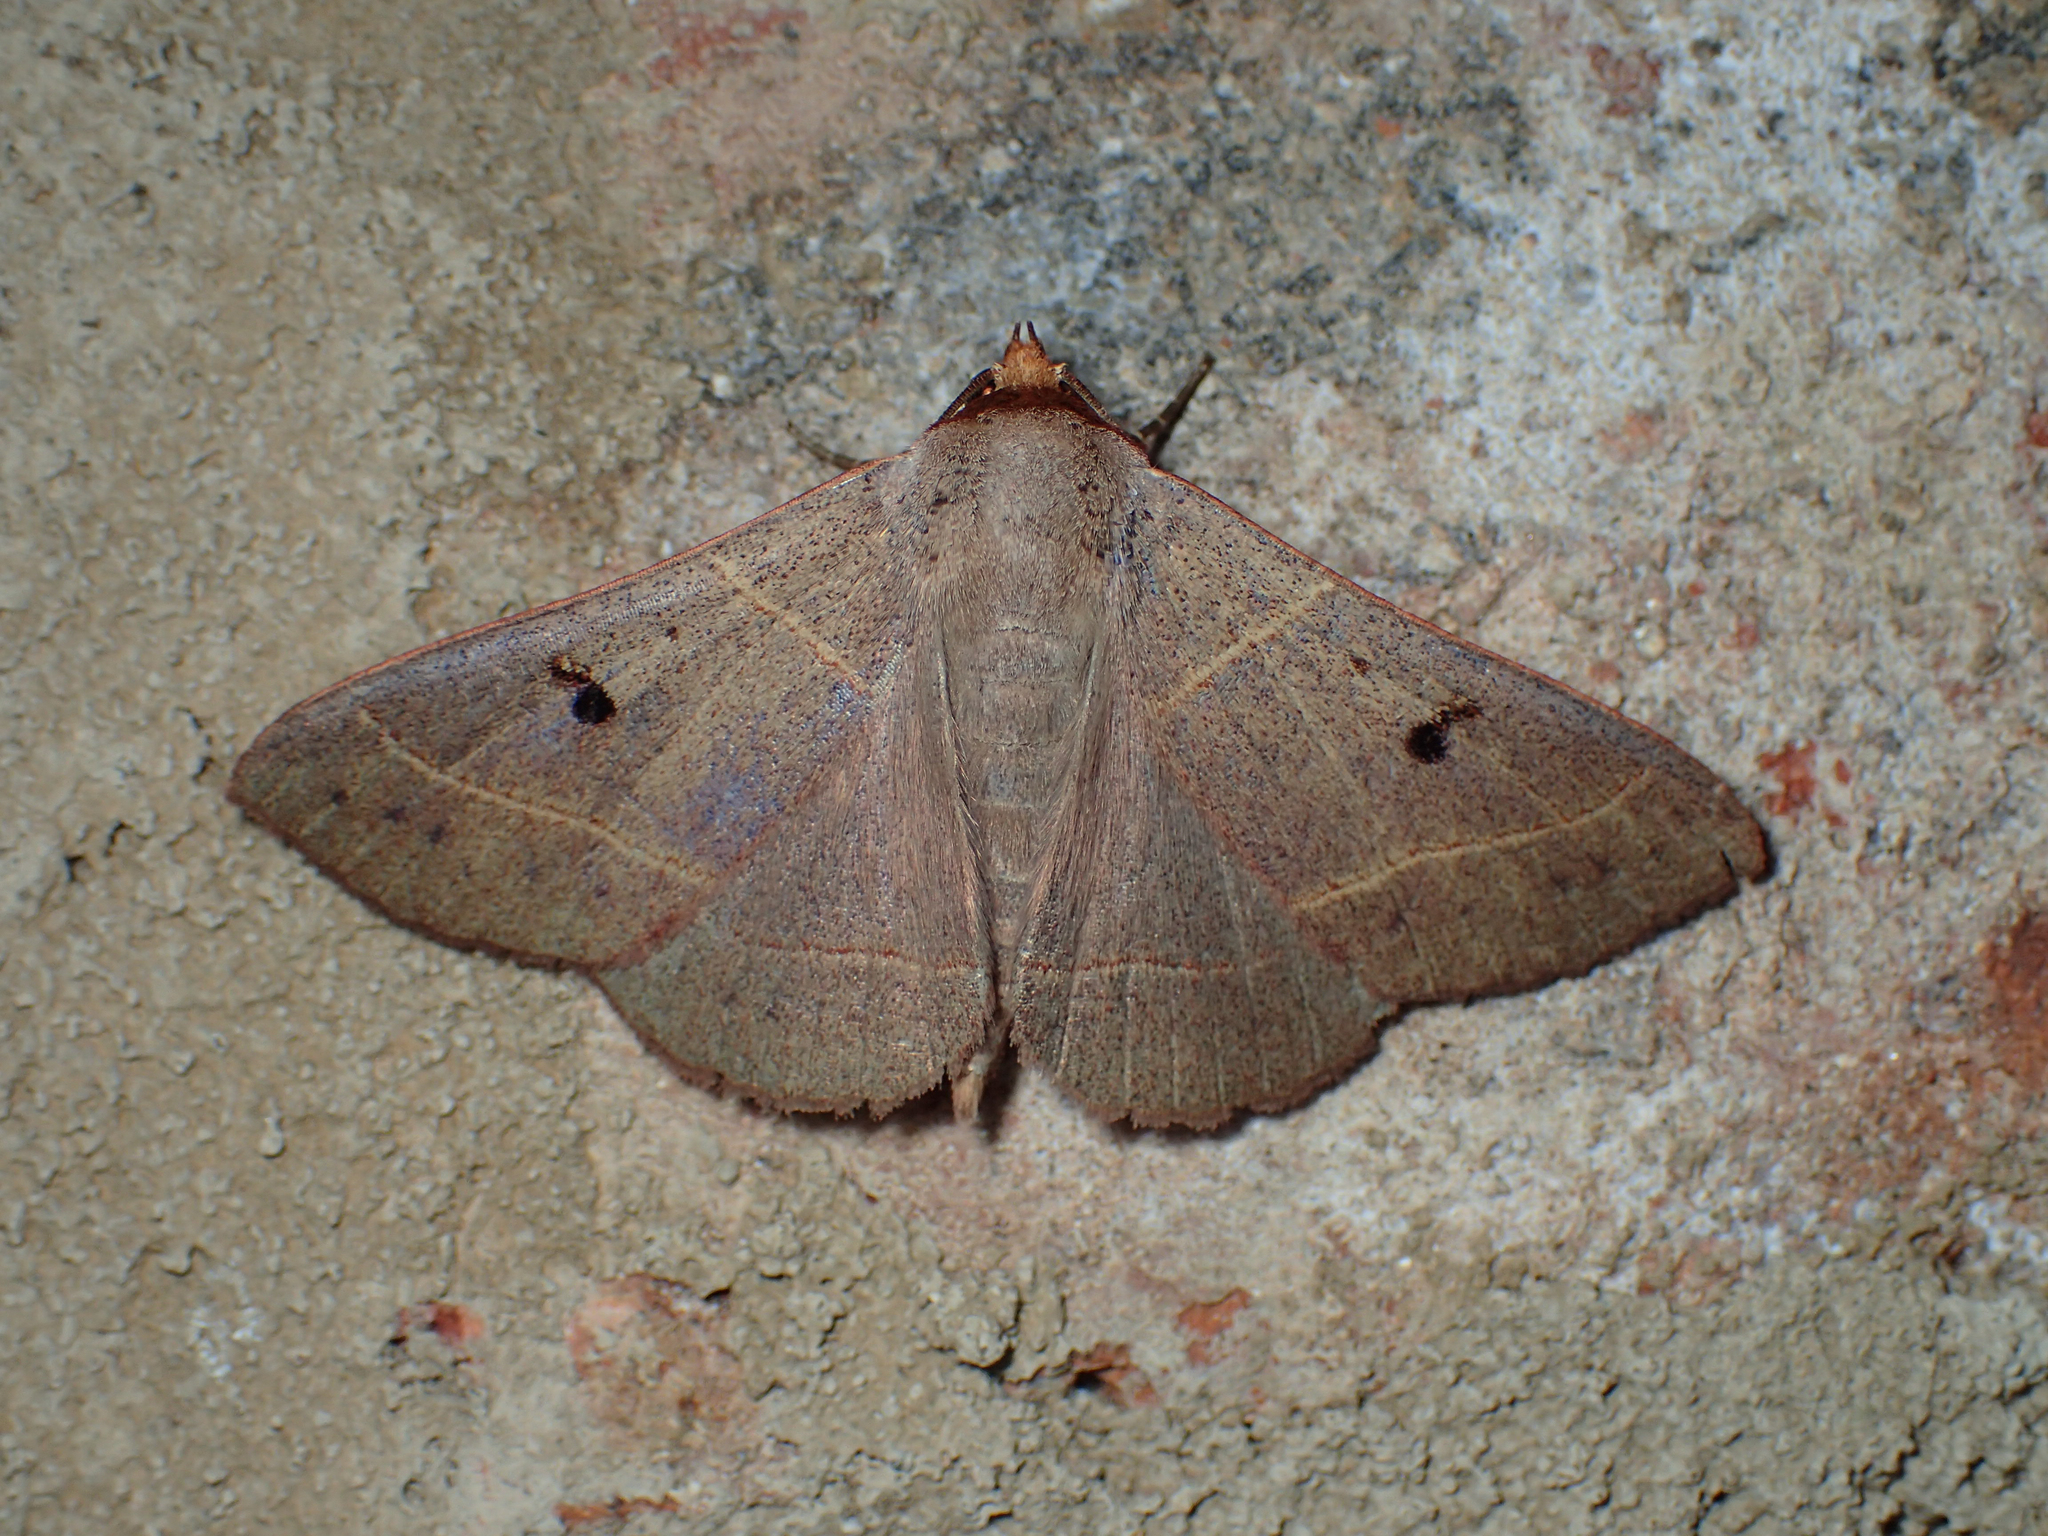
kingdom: Animalia
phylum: Arthropoda
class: Insecta
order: Lepidoptera
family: Erebidae
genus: Panopoda
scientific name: Panopoda rufimargo
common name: Red-lined panopoda moth
